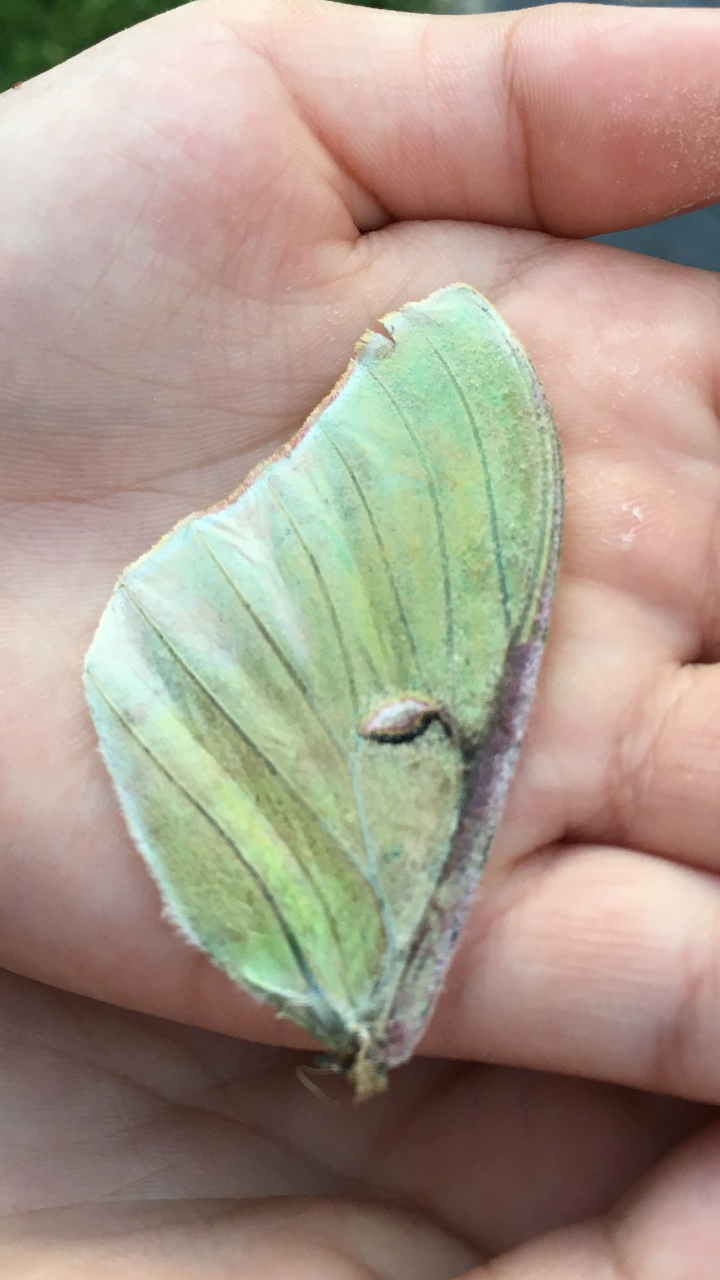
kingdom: Animalia
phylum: Arthropoda
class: Insecta
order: Lepidoptera
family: Saturniidae
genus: Actias
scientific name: Actias luna
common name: Luna moth
